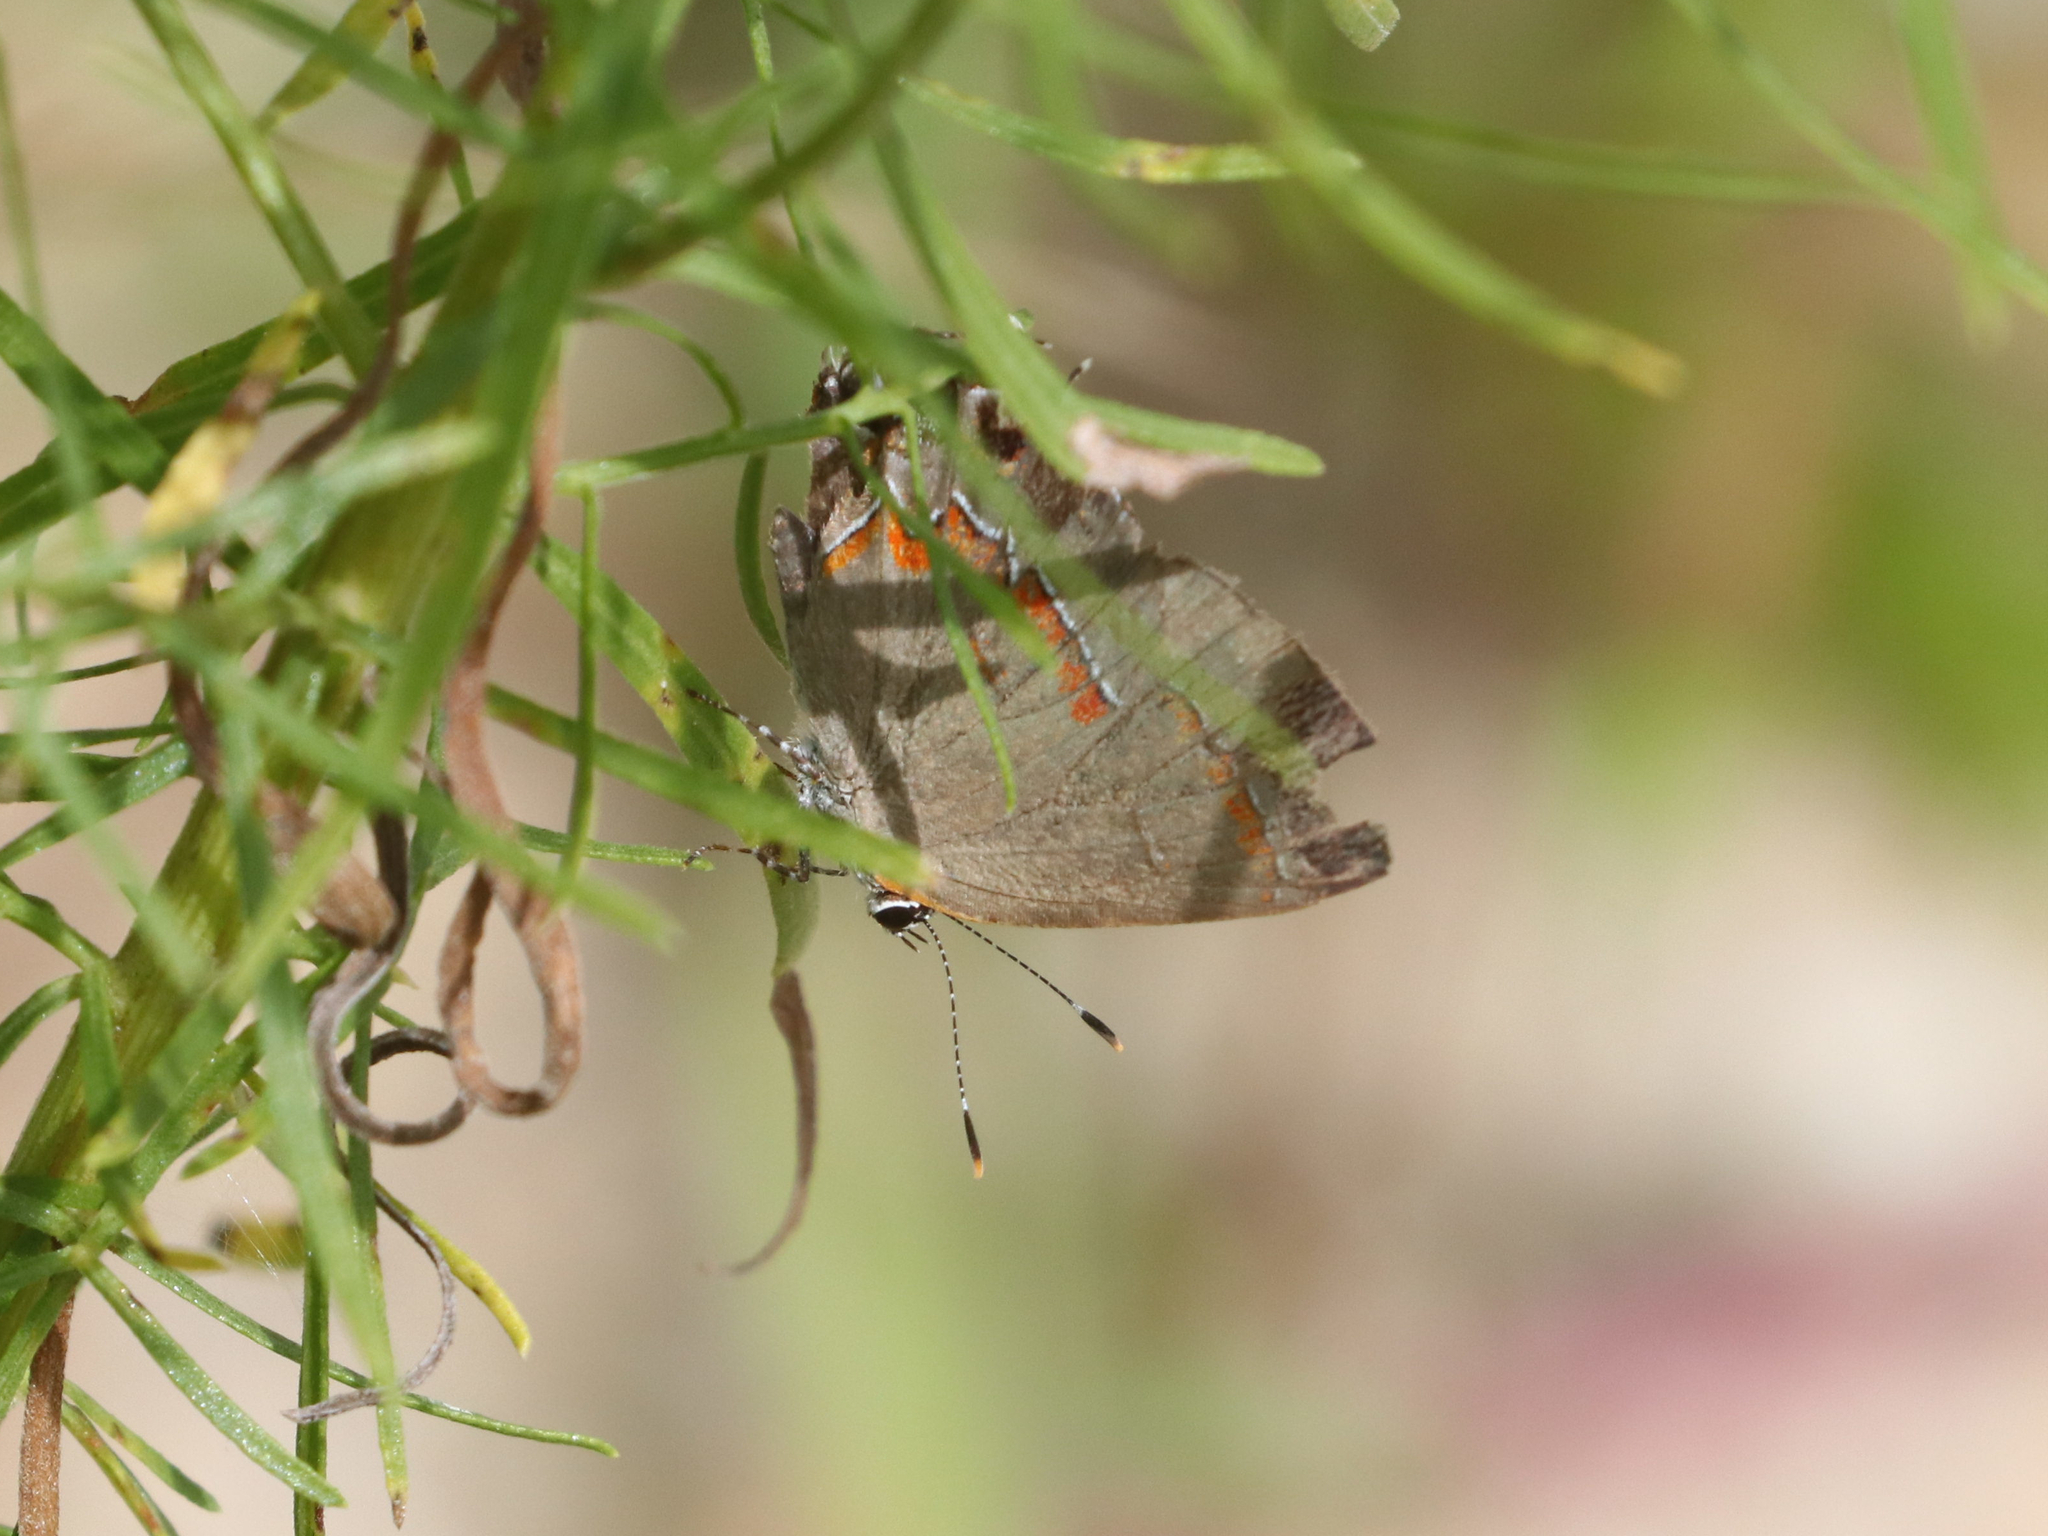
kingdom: Animalia
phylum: Arthropoda
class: Insecta
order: Lepidoptera
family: Lycaenidae
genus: Calycopis
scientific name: Calycopis cecrops
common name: Red-banded hairstreak
